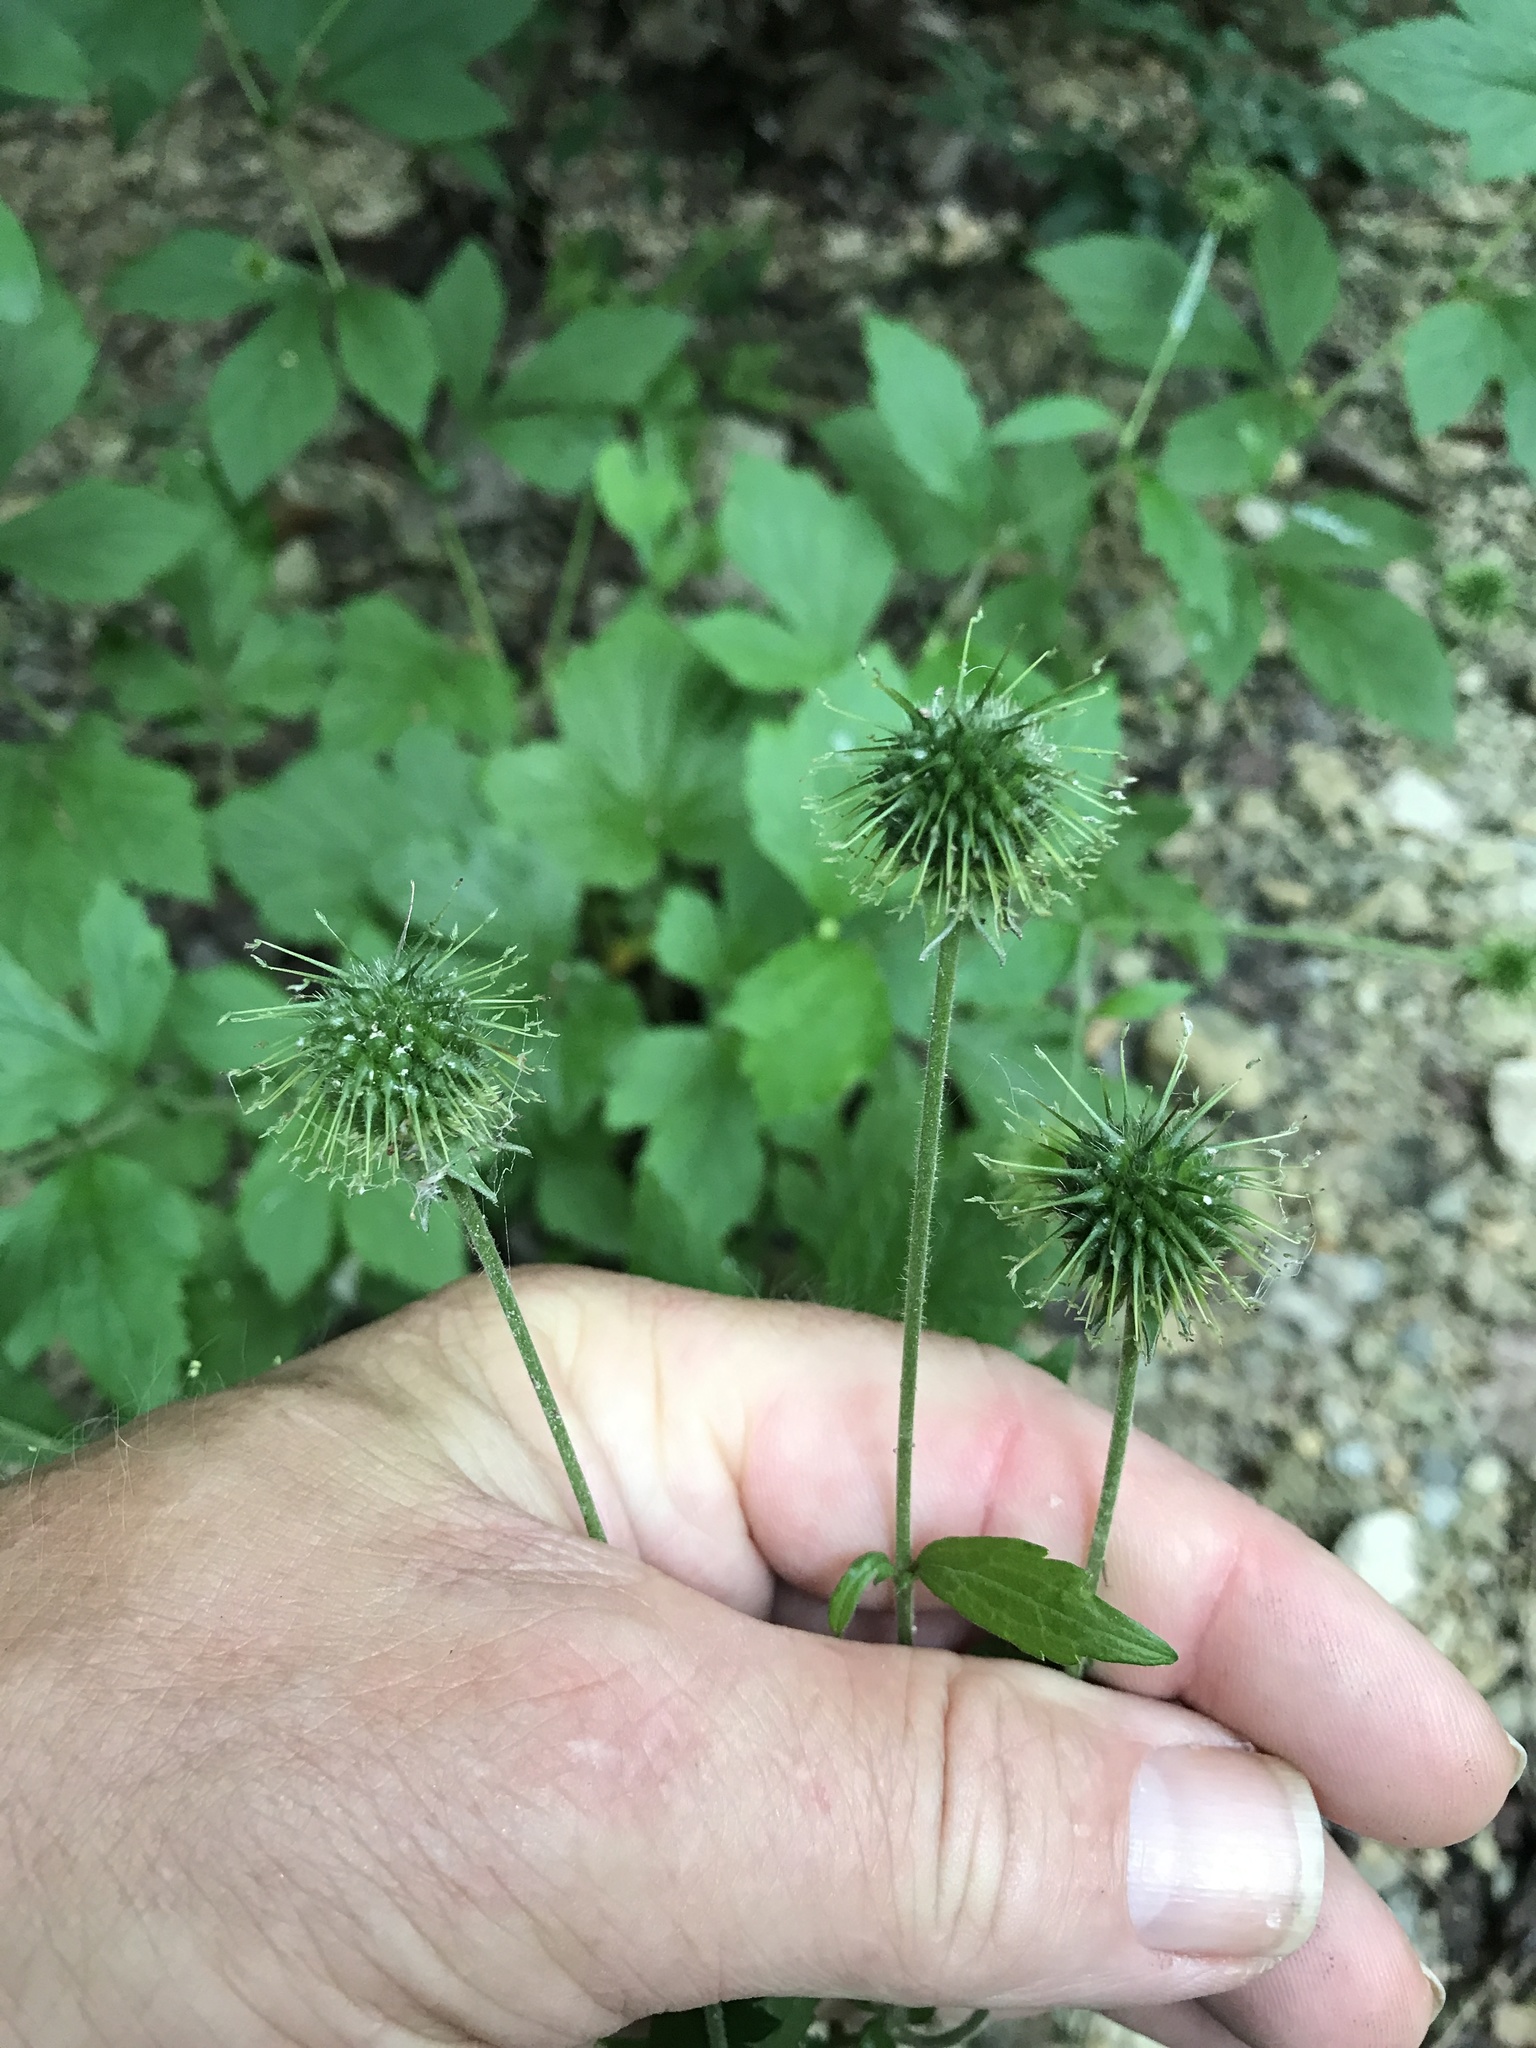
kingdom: Plantae
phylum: Tracheophyta
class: Magnoliopsida
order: Rosales
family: Rosaceae
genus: Geum
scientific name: Geum canadense
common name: White avens
